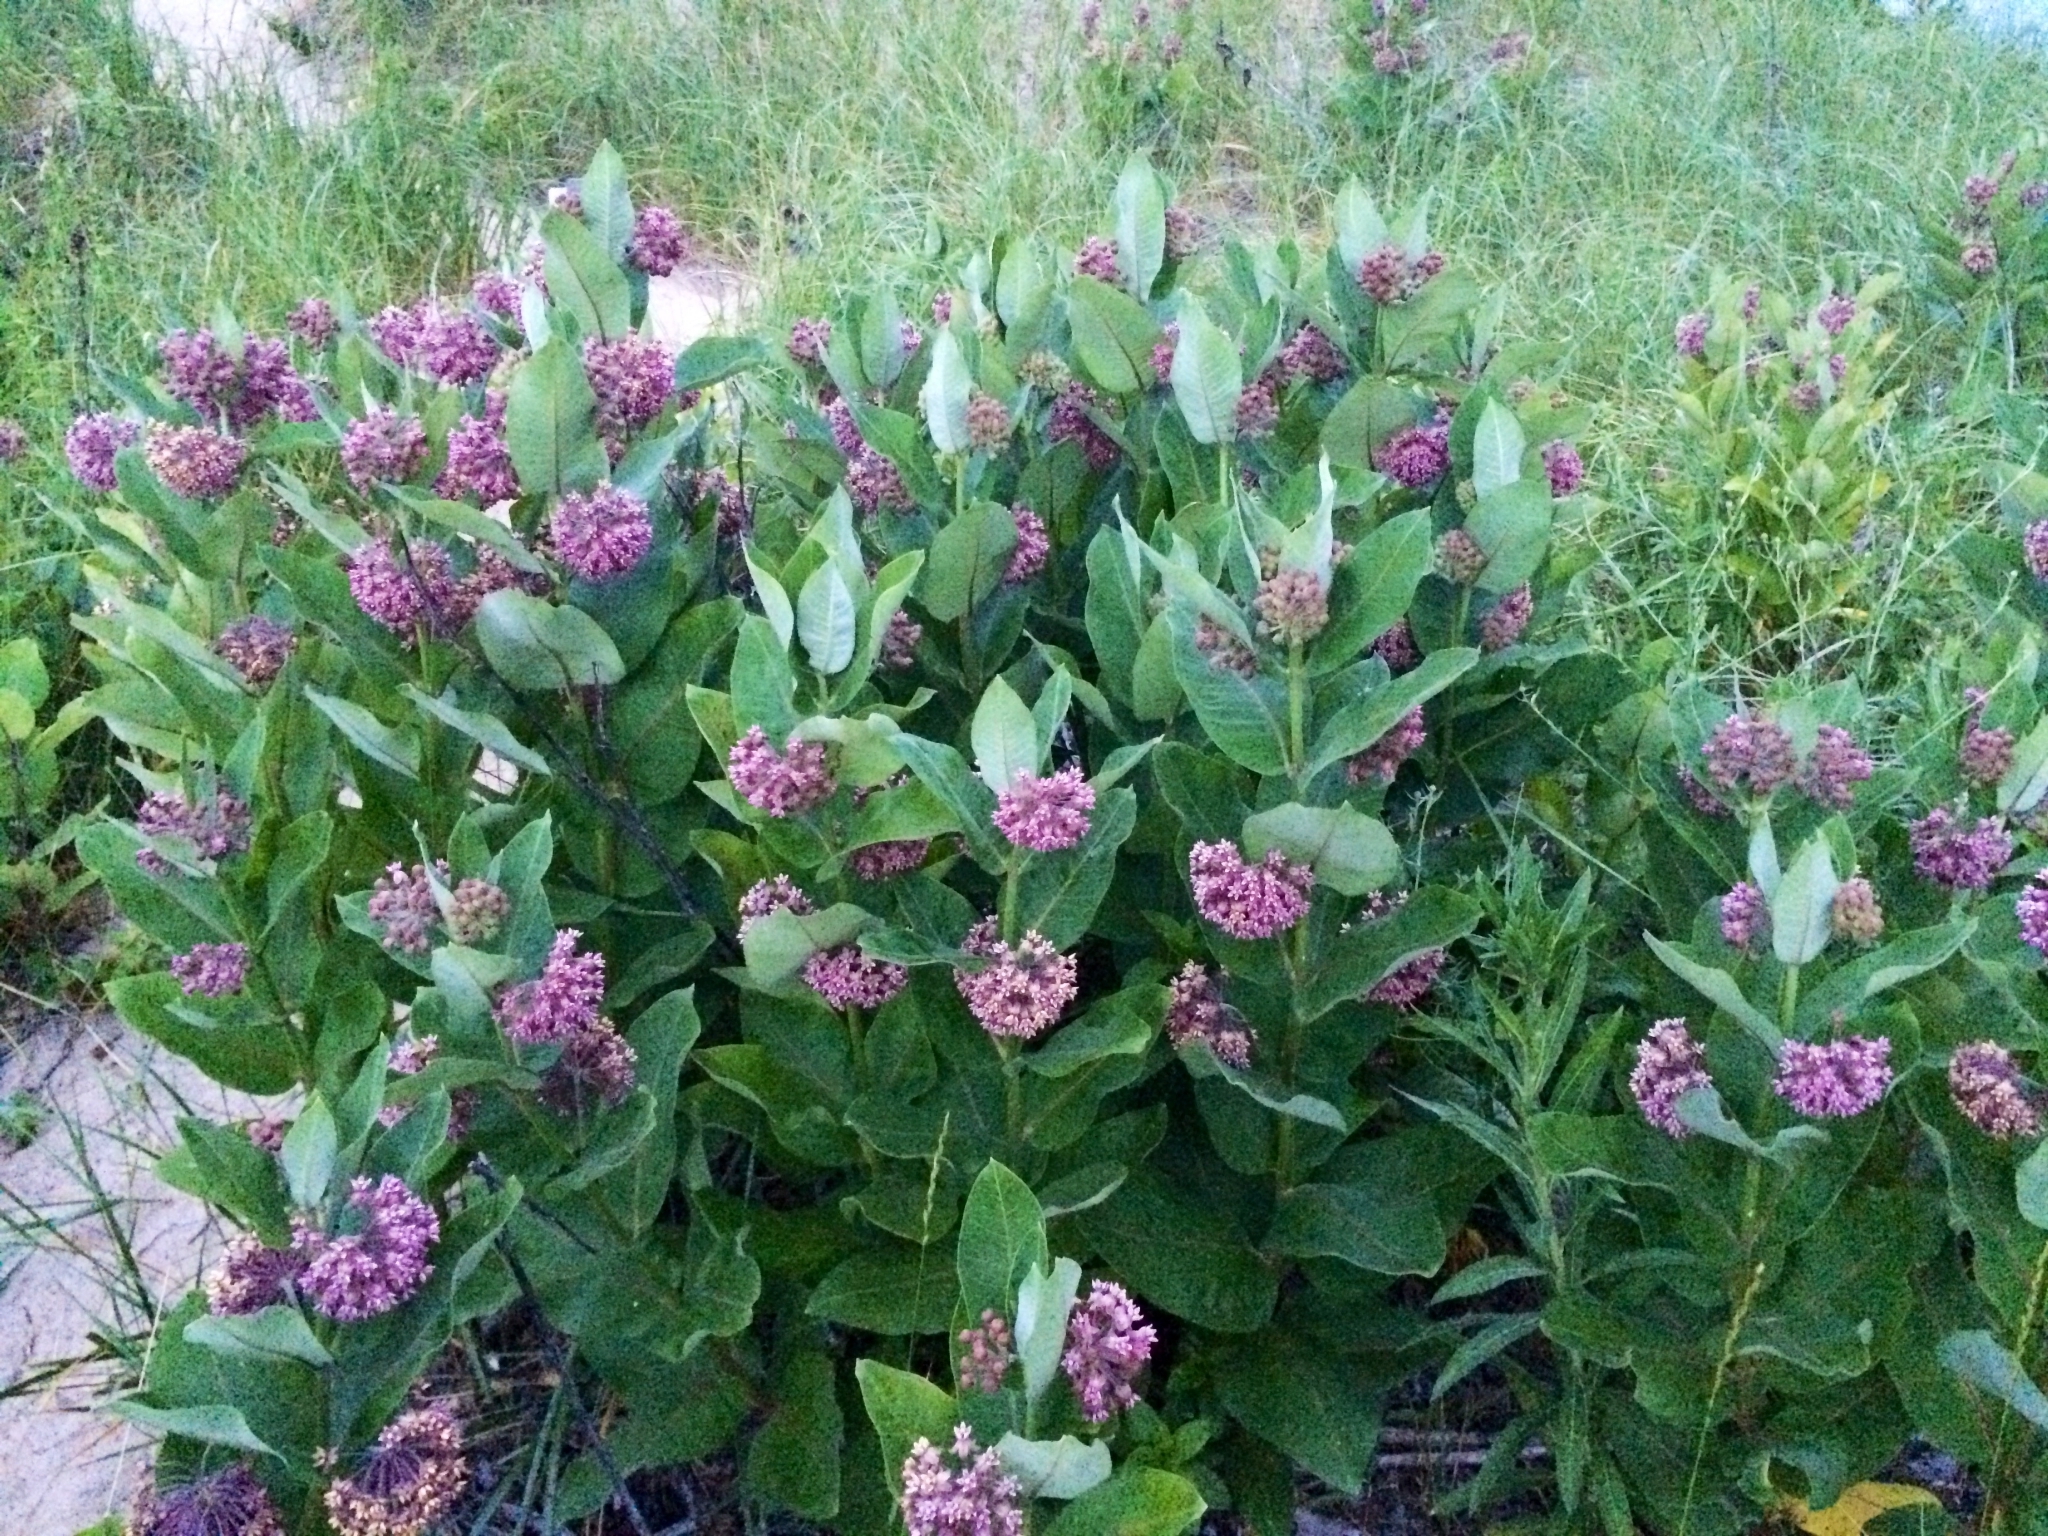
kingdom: Plantae
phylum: Tracheophyta
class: Magnoliopsida
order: Gentianales
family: Apocynaceae
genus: Asclepias
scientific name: Asclepias syriaca
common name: Common milkweed
